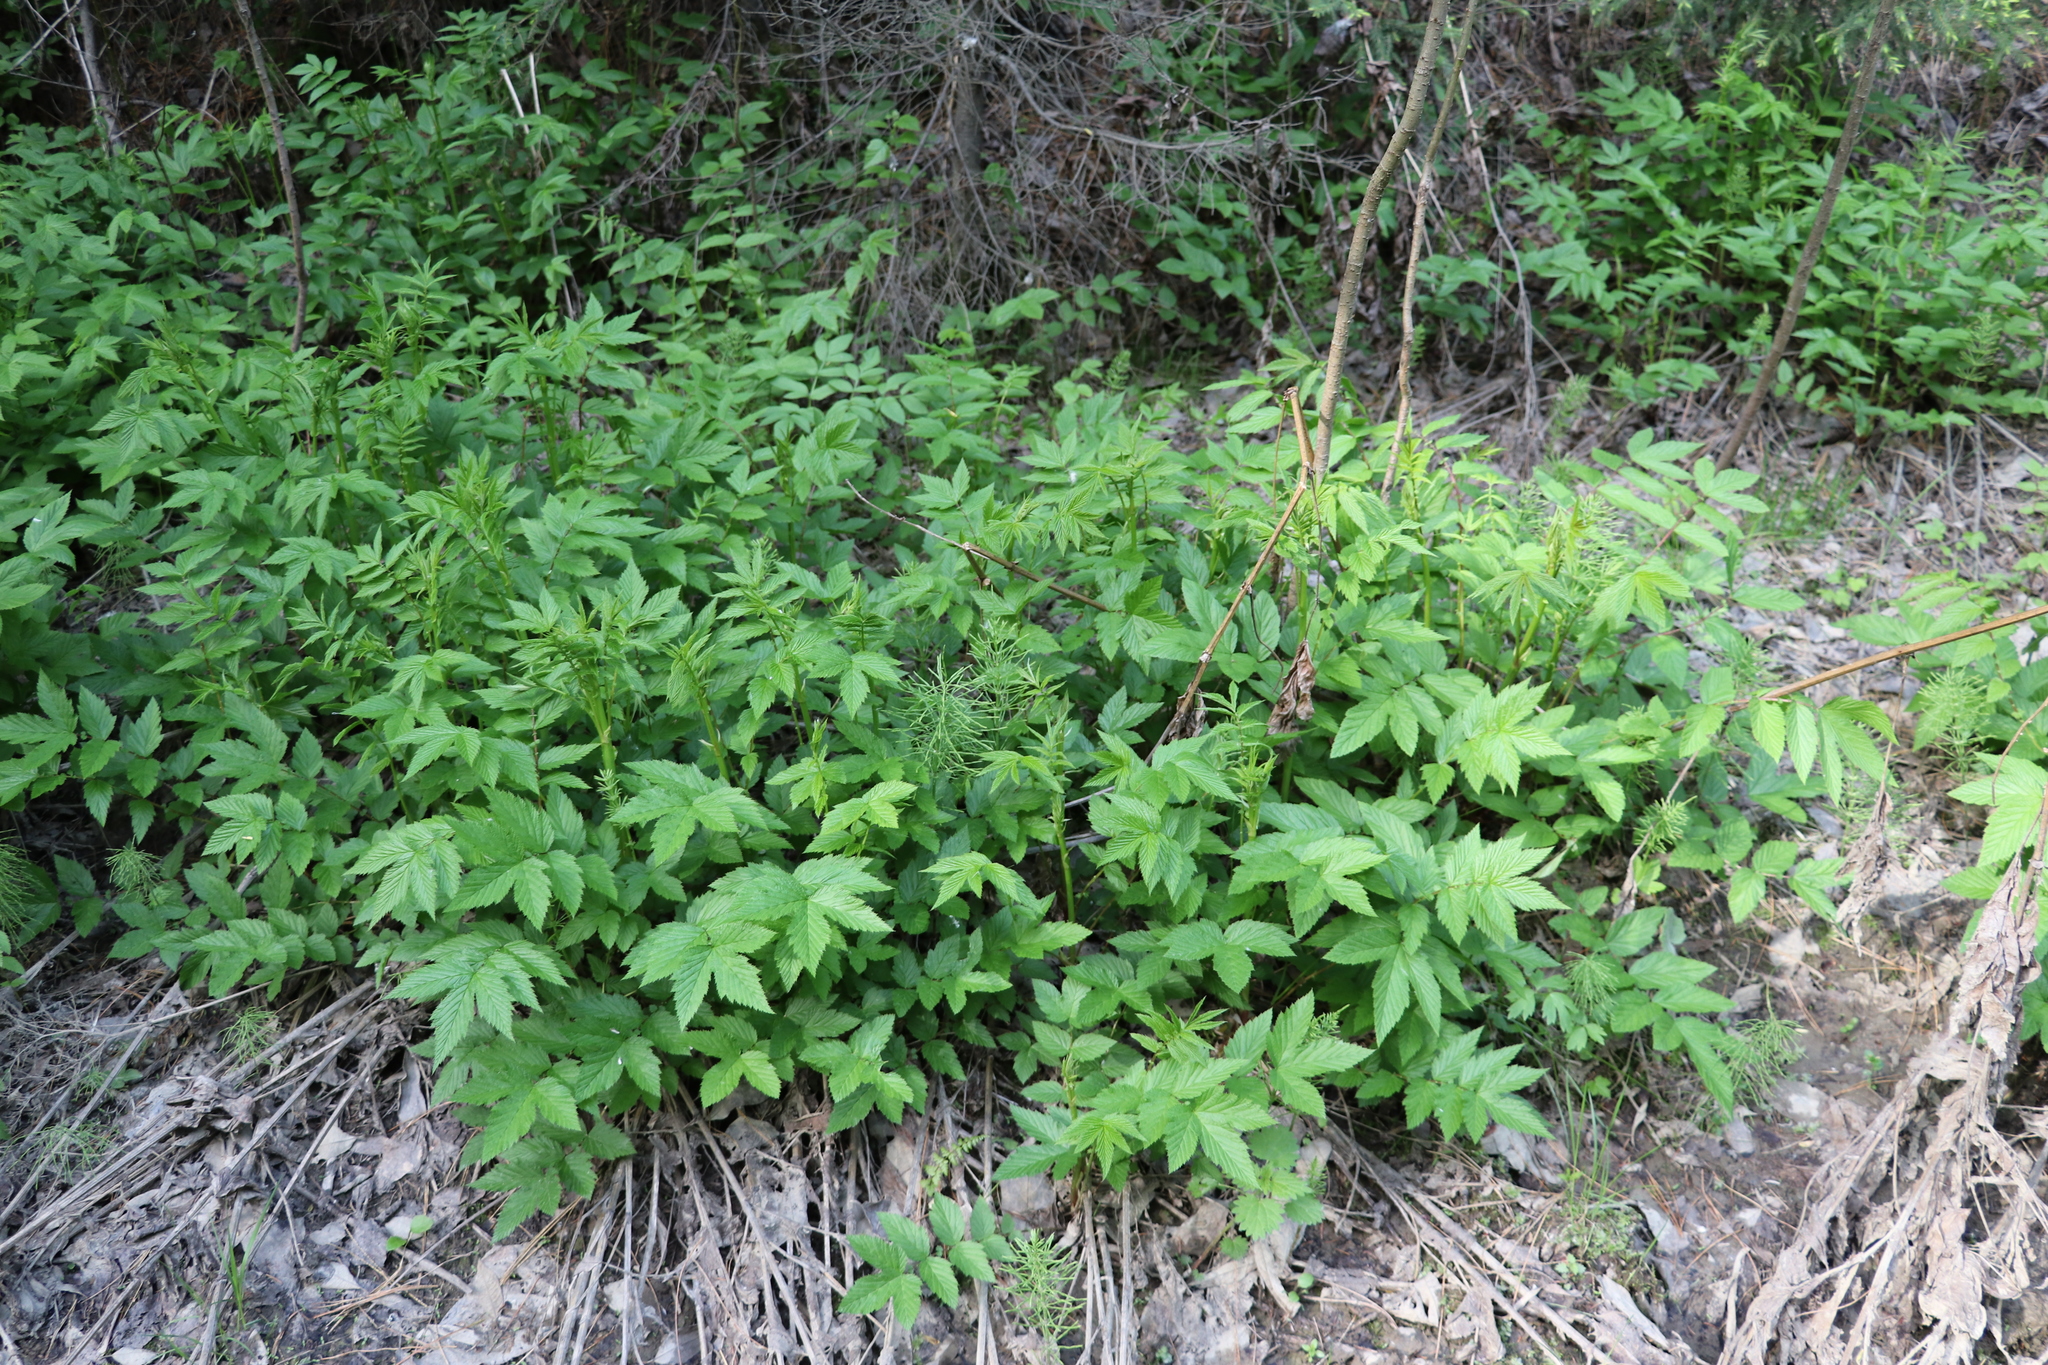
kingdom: Plantae
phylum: Tracheophyta
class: Magnoliopsida
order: Rosales
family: Rosaceae
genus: Filipendula
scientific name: Filipendula ulmaria
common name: Meadowsweet
